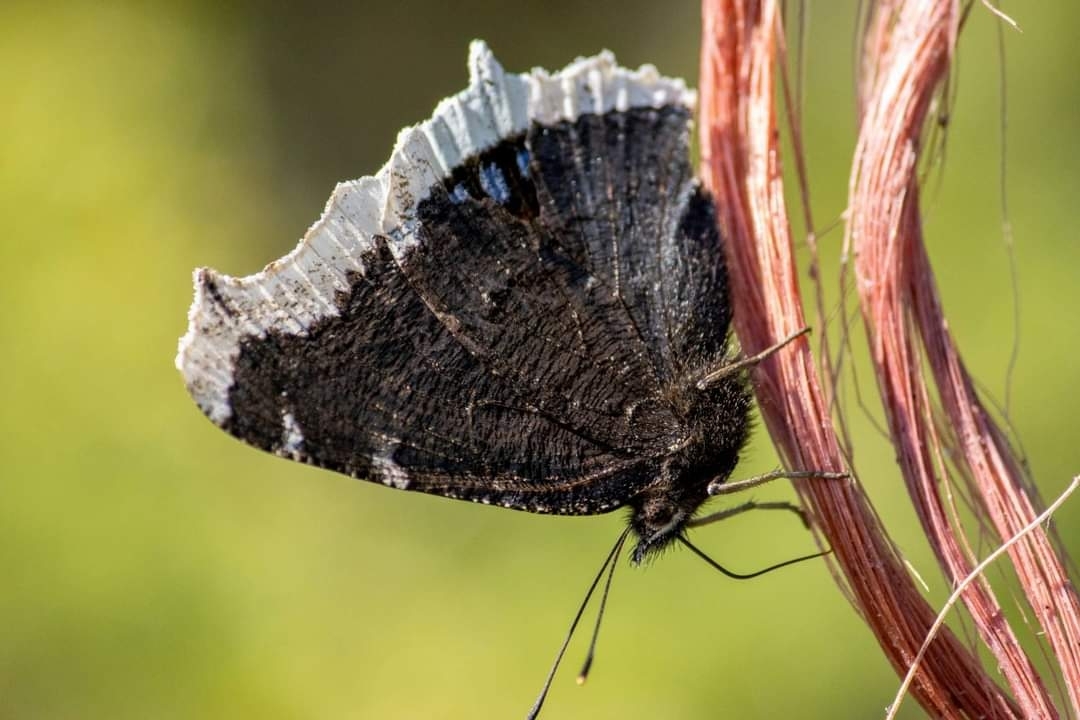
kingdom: Animalia
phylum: Arthropoda
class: Insecta
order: Lepidoptera
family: Nymphalidae
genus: Nymphalis
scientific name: Nymphalis antiopa
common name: Camberwell beauty
